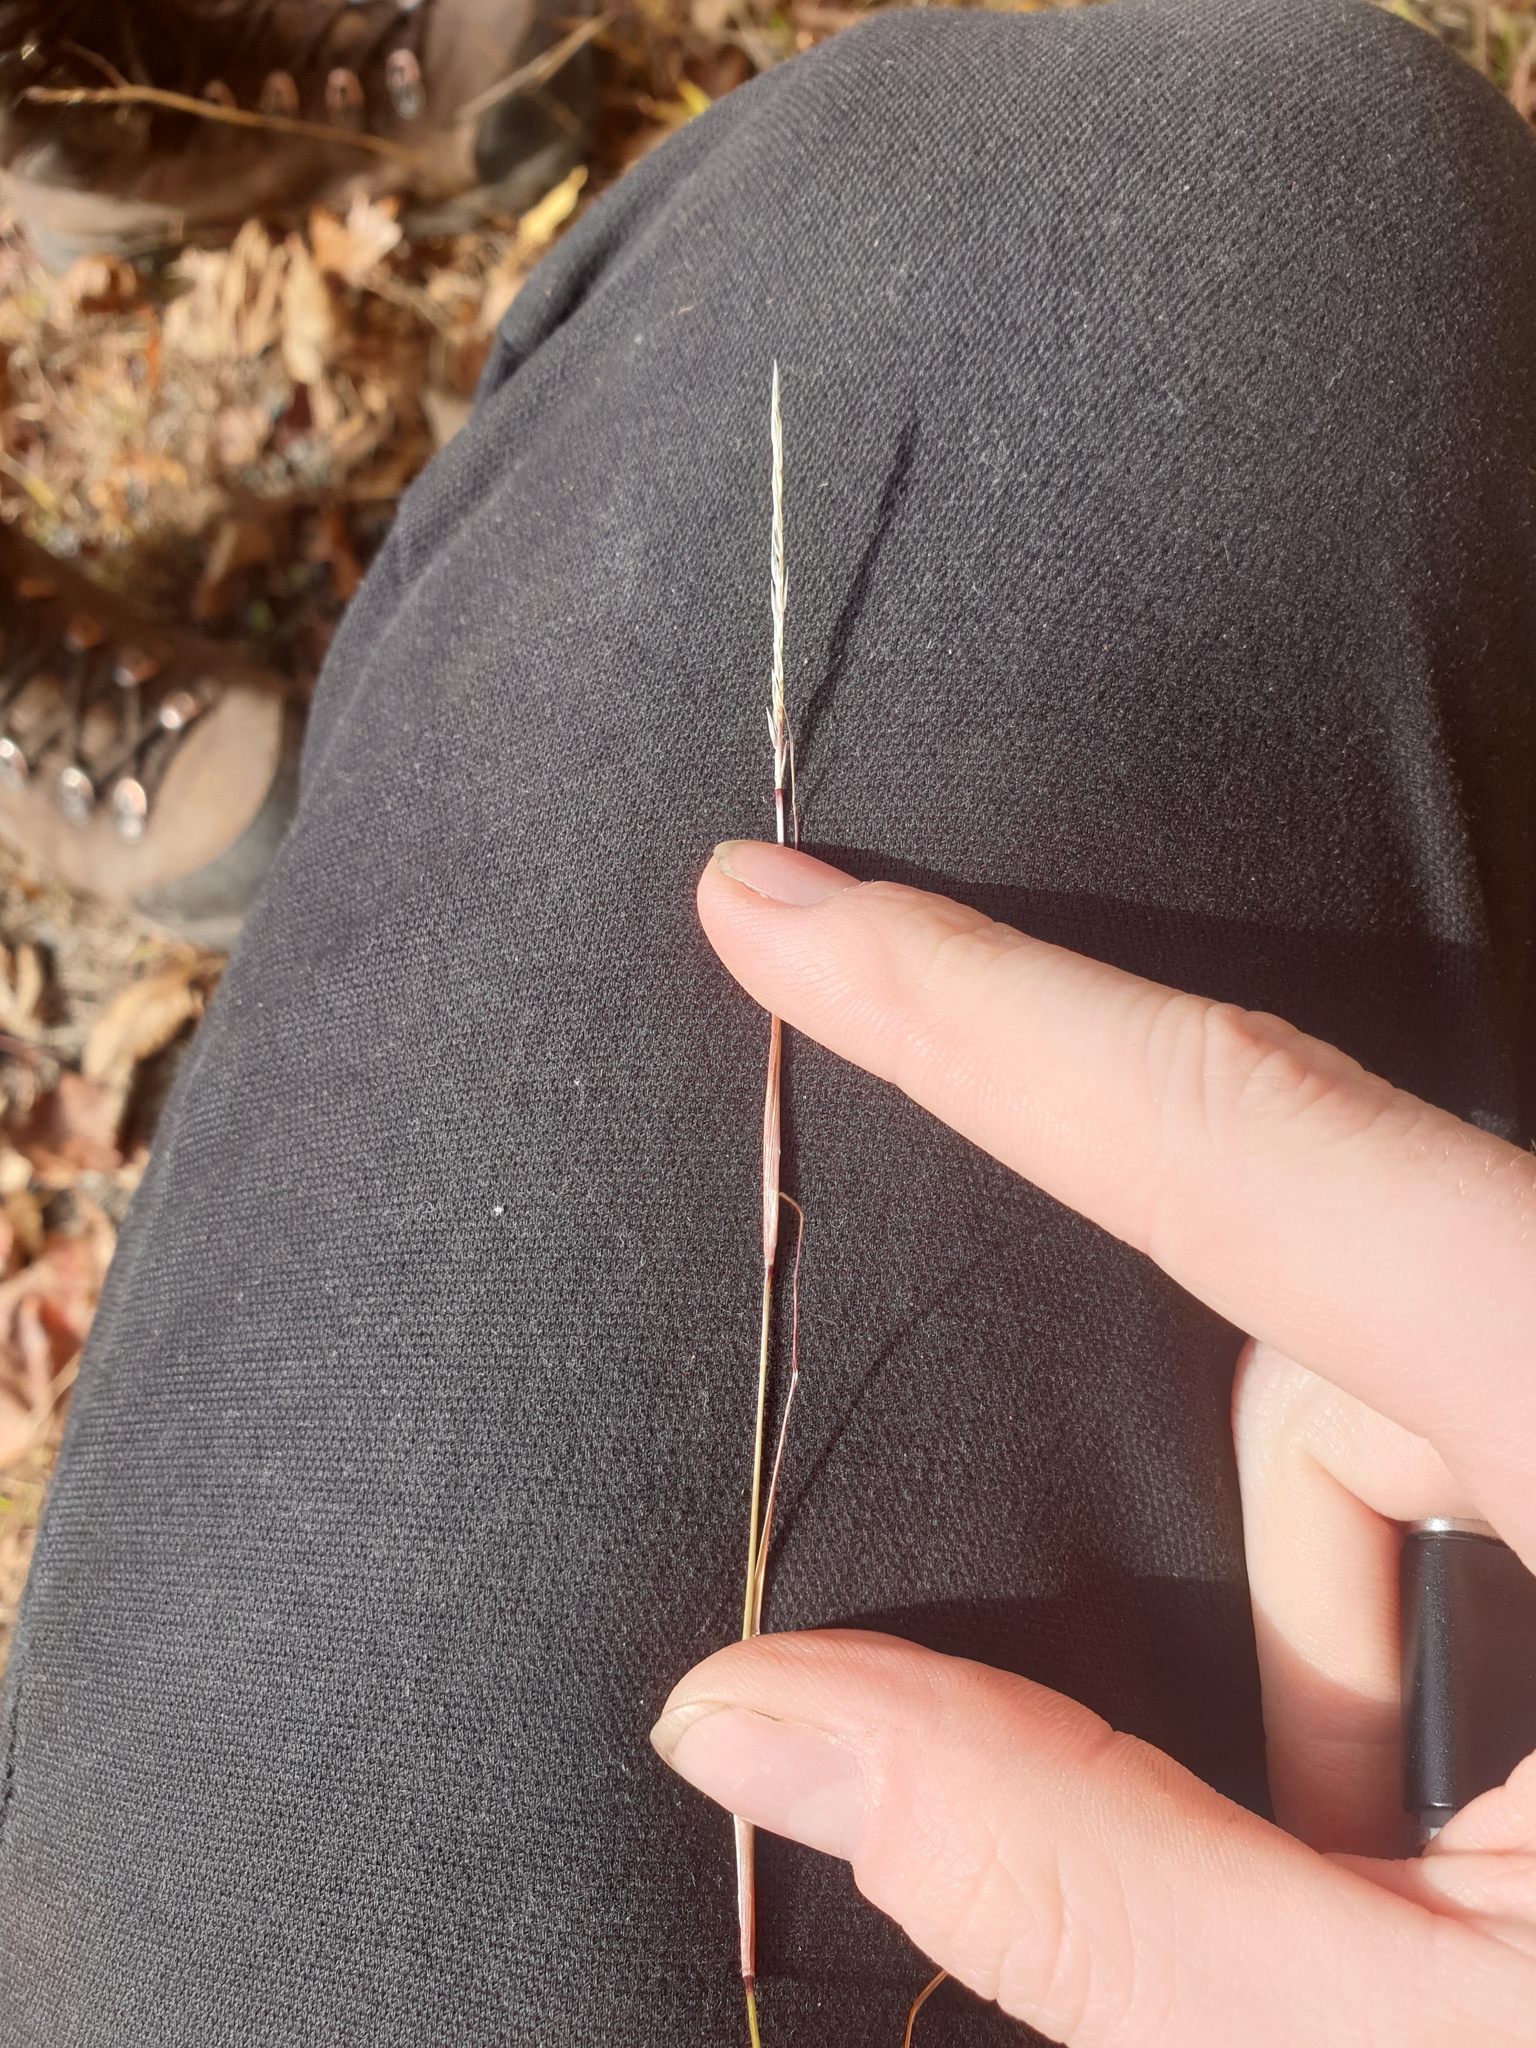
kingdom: Plantae
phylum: Tracheophyta
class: Liliopsida
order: Poales
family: Poaceae
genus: Sporobolus
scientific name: Sporobolus vaginiflorus
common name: Poverty dropseed
